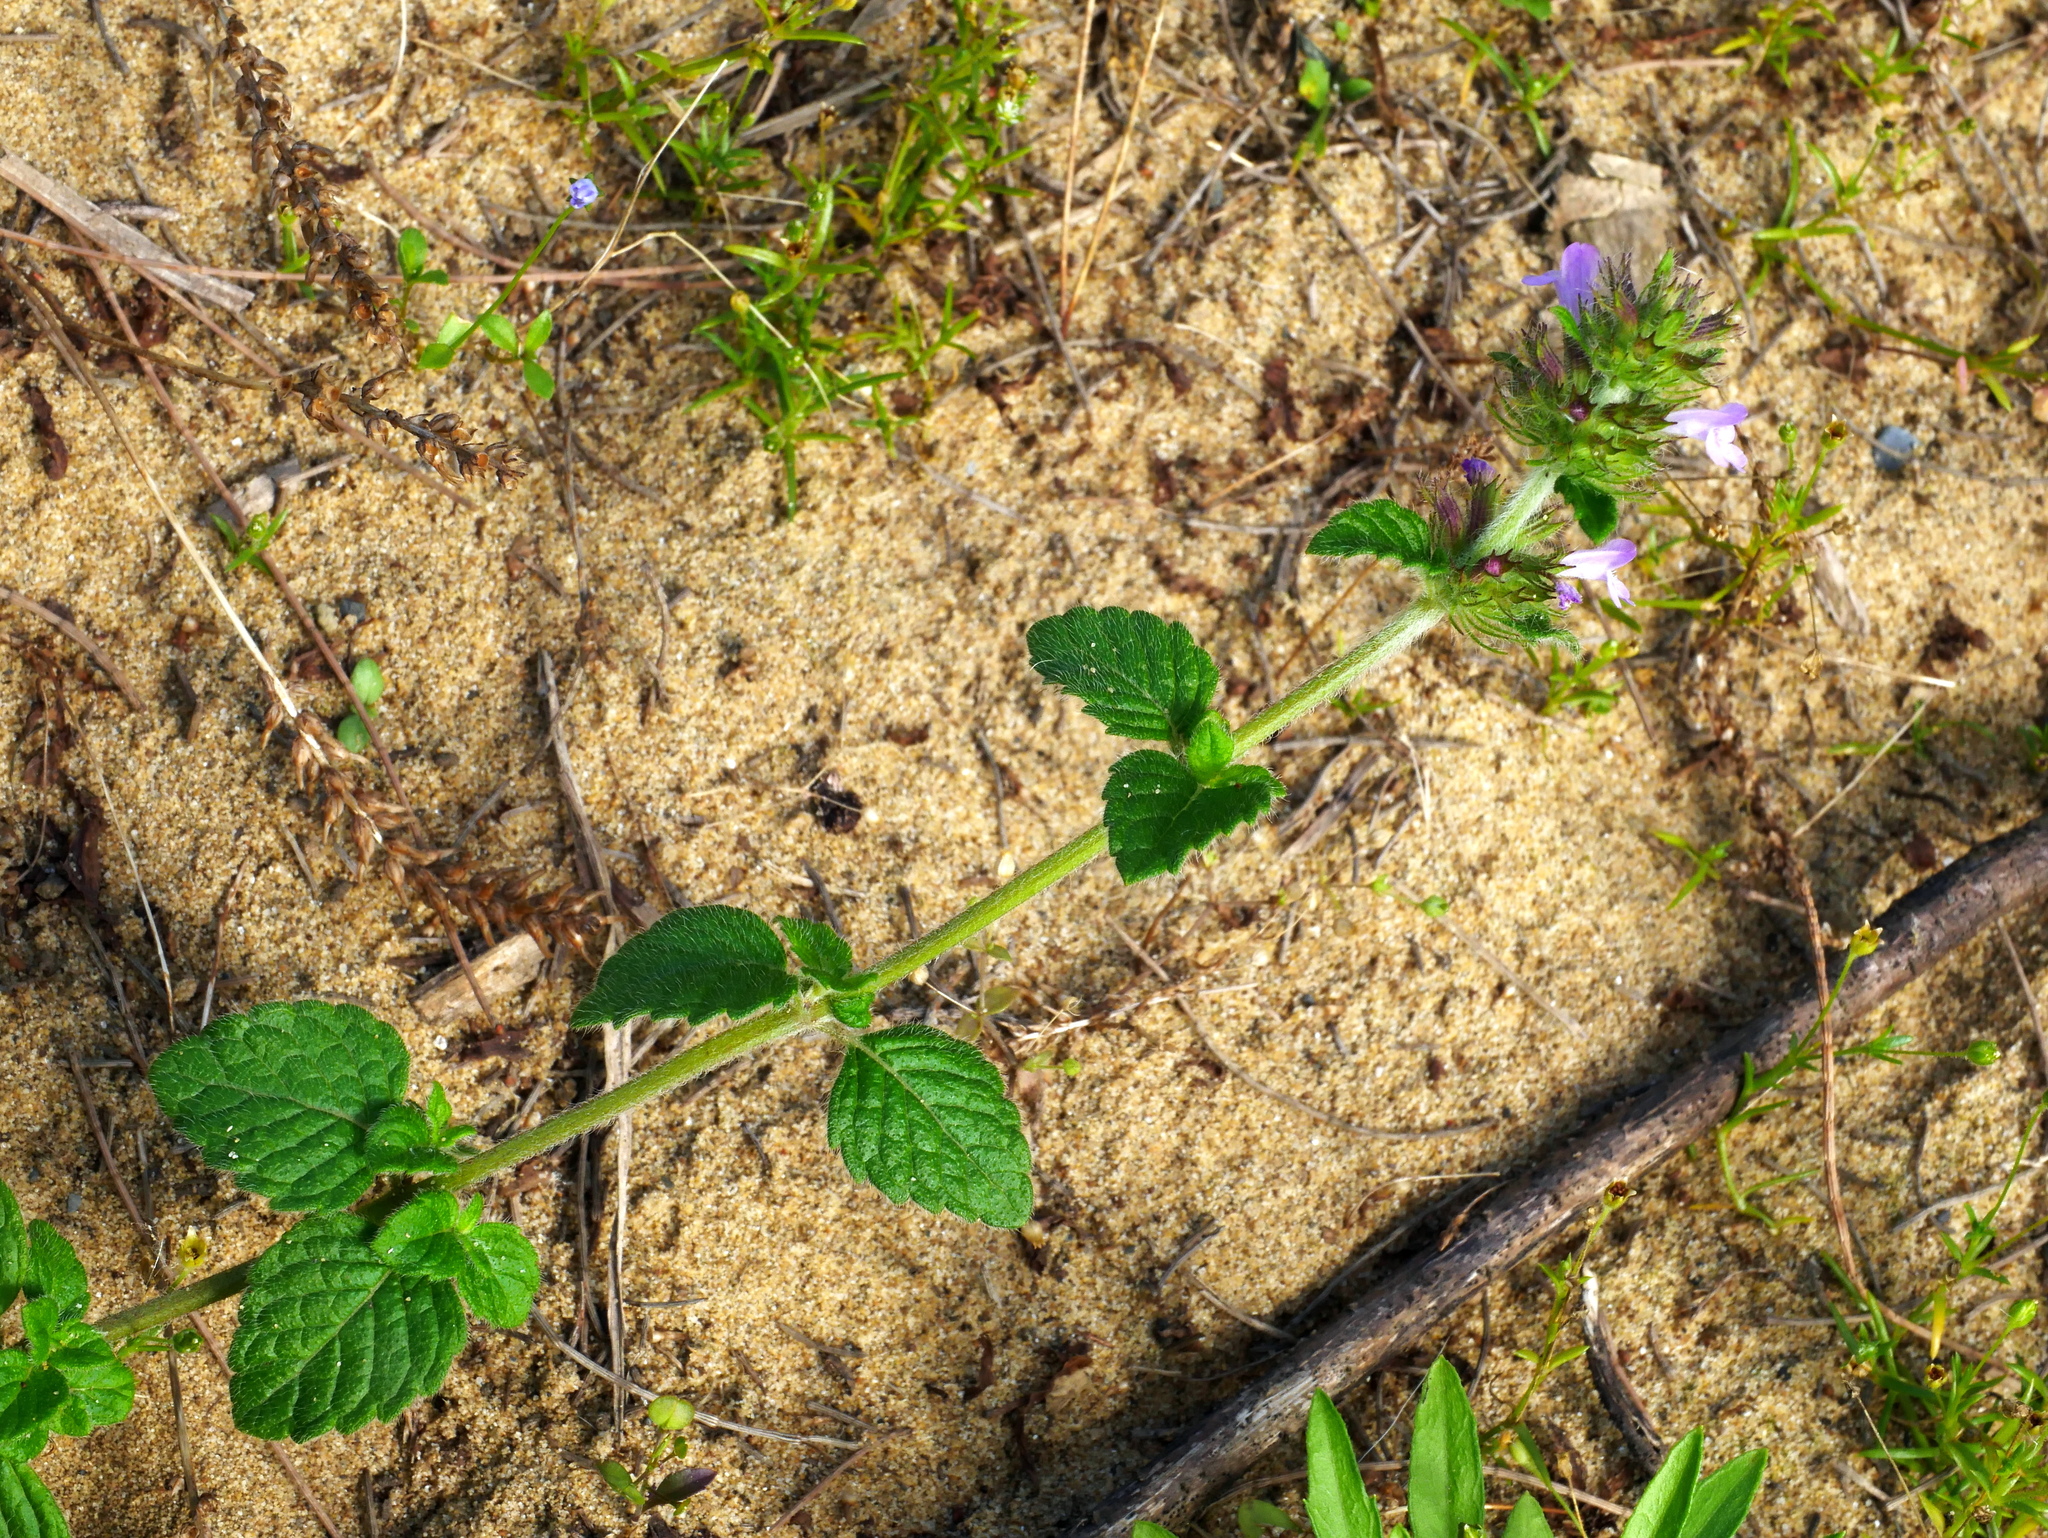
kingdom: Plantae
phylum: Tracheophyta
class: Magnoliopsida
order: Lamiales
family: Lamiaceae
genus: Clinopodium
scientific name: Clinopodium chinense
